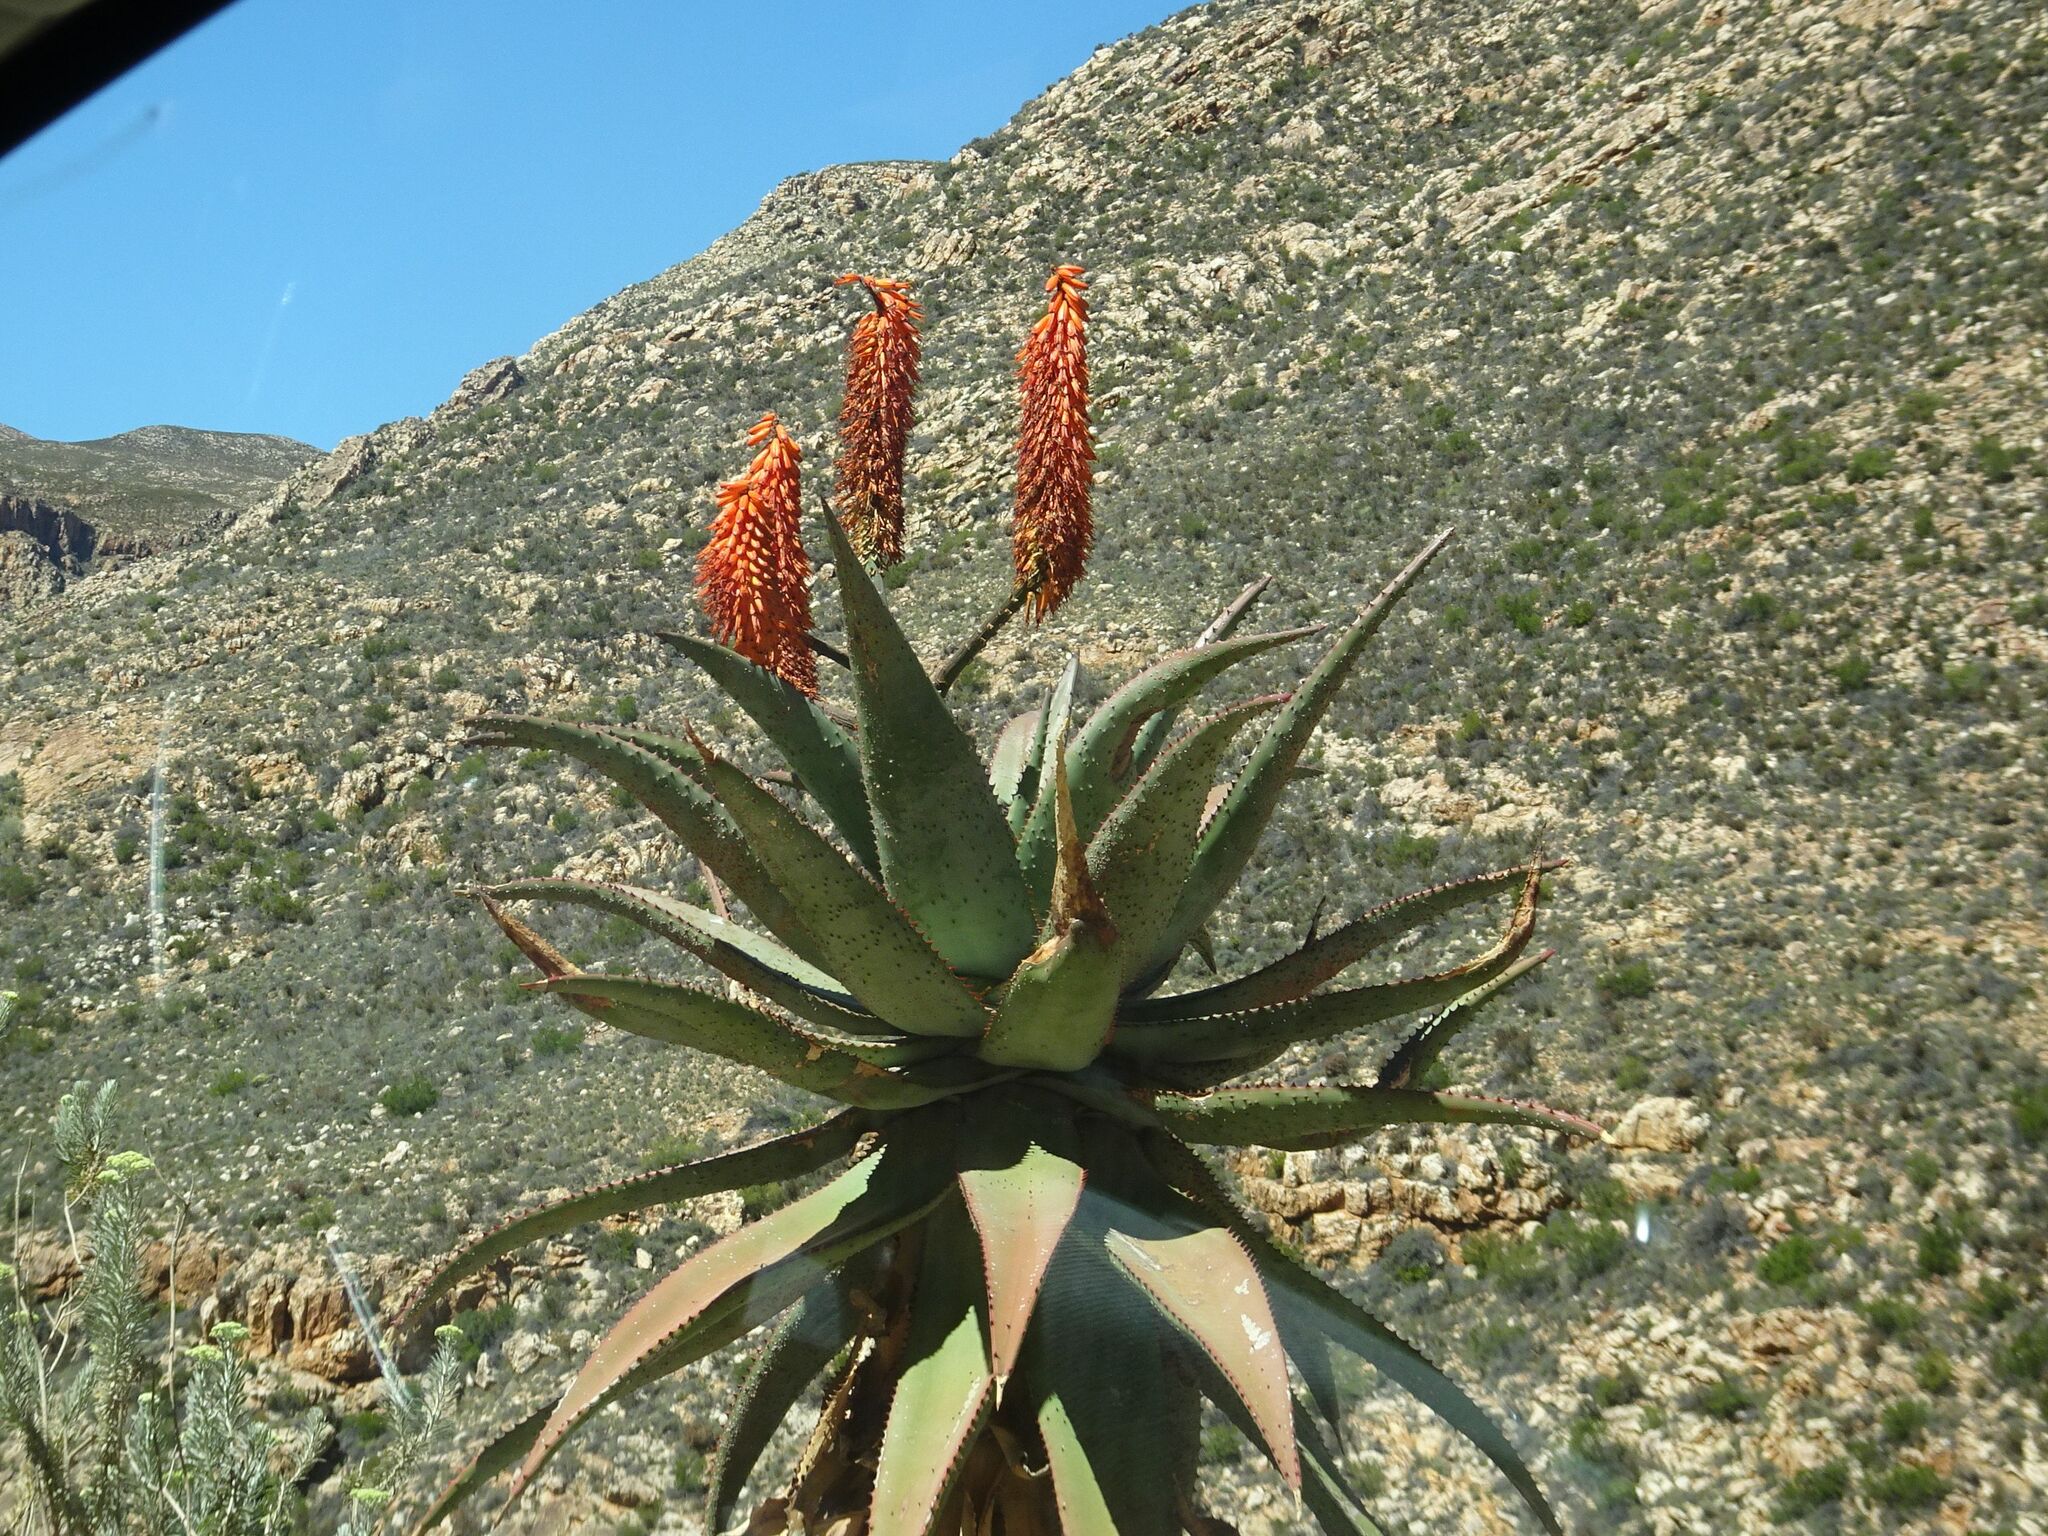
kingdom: Plantae
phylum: Tracheophyta
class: Liliopsida
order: Asparagales
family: Asphodelaceae
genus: Aloe
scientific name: Aloe ferox
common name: Bitter aloe
